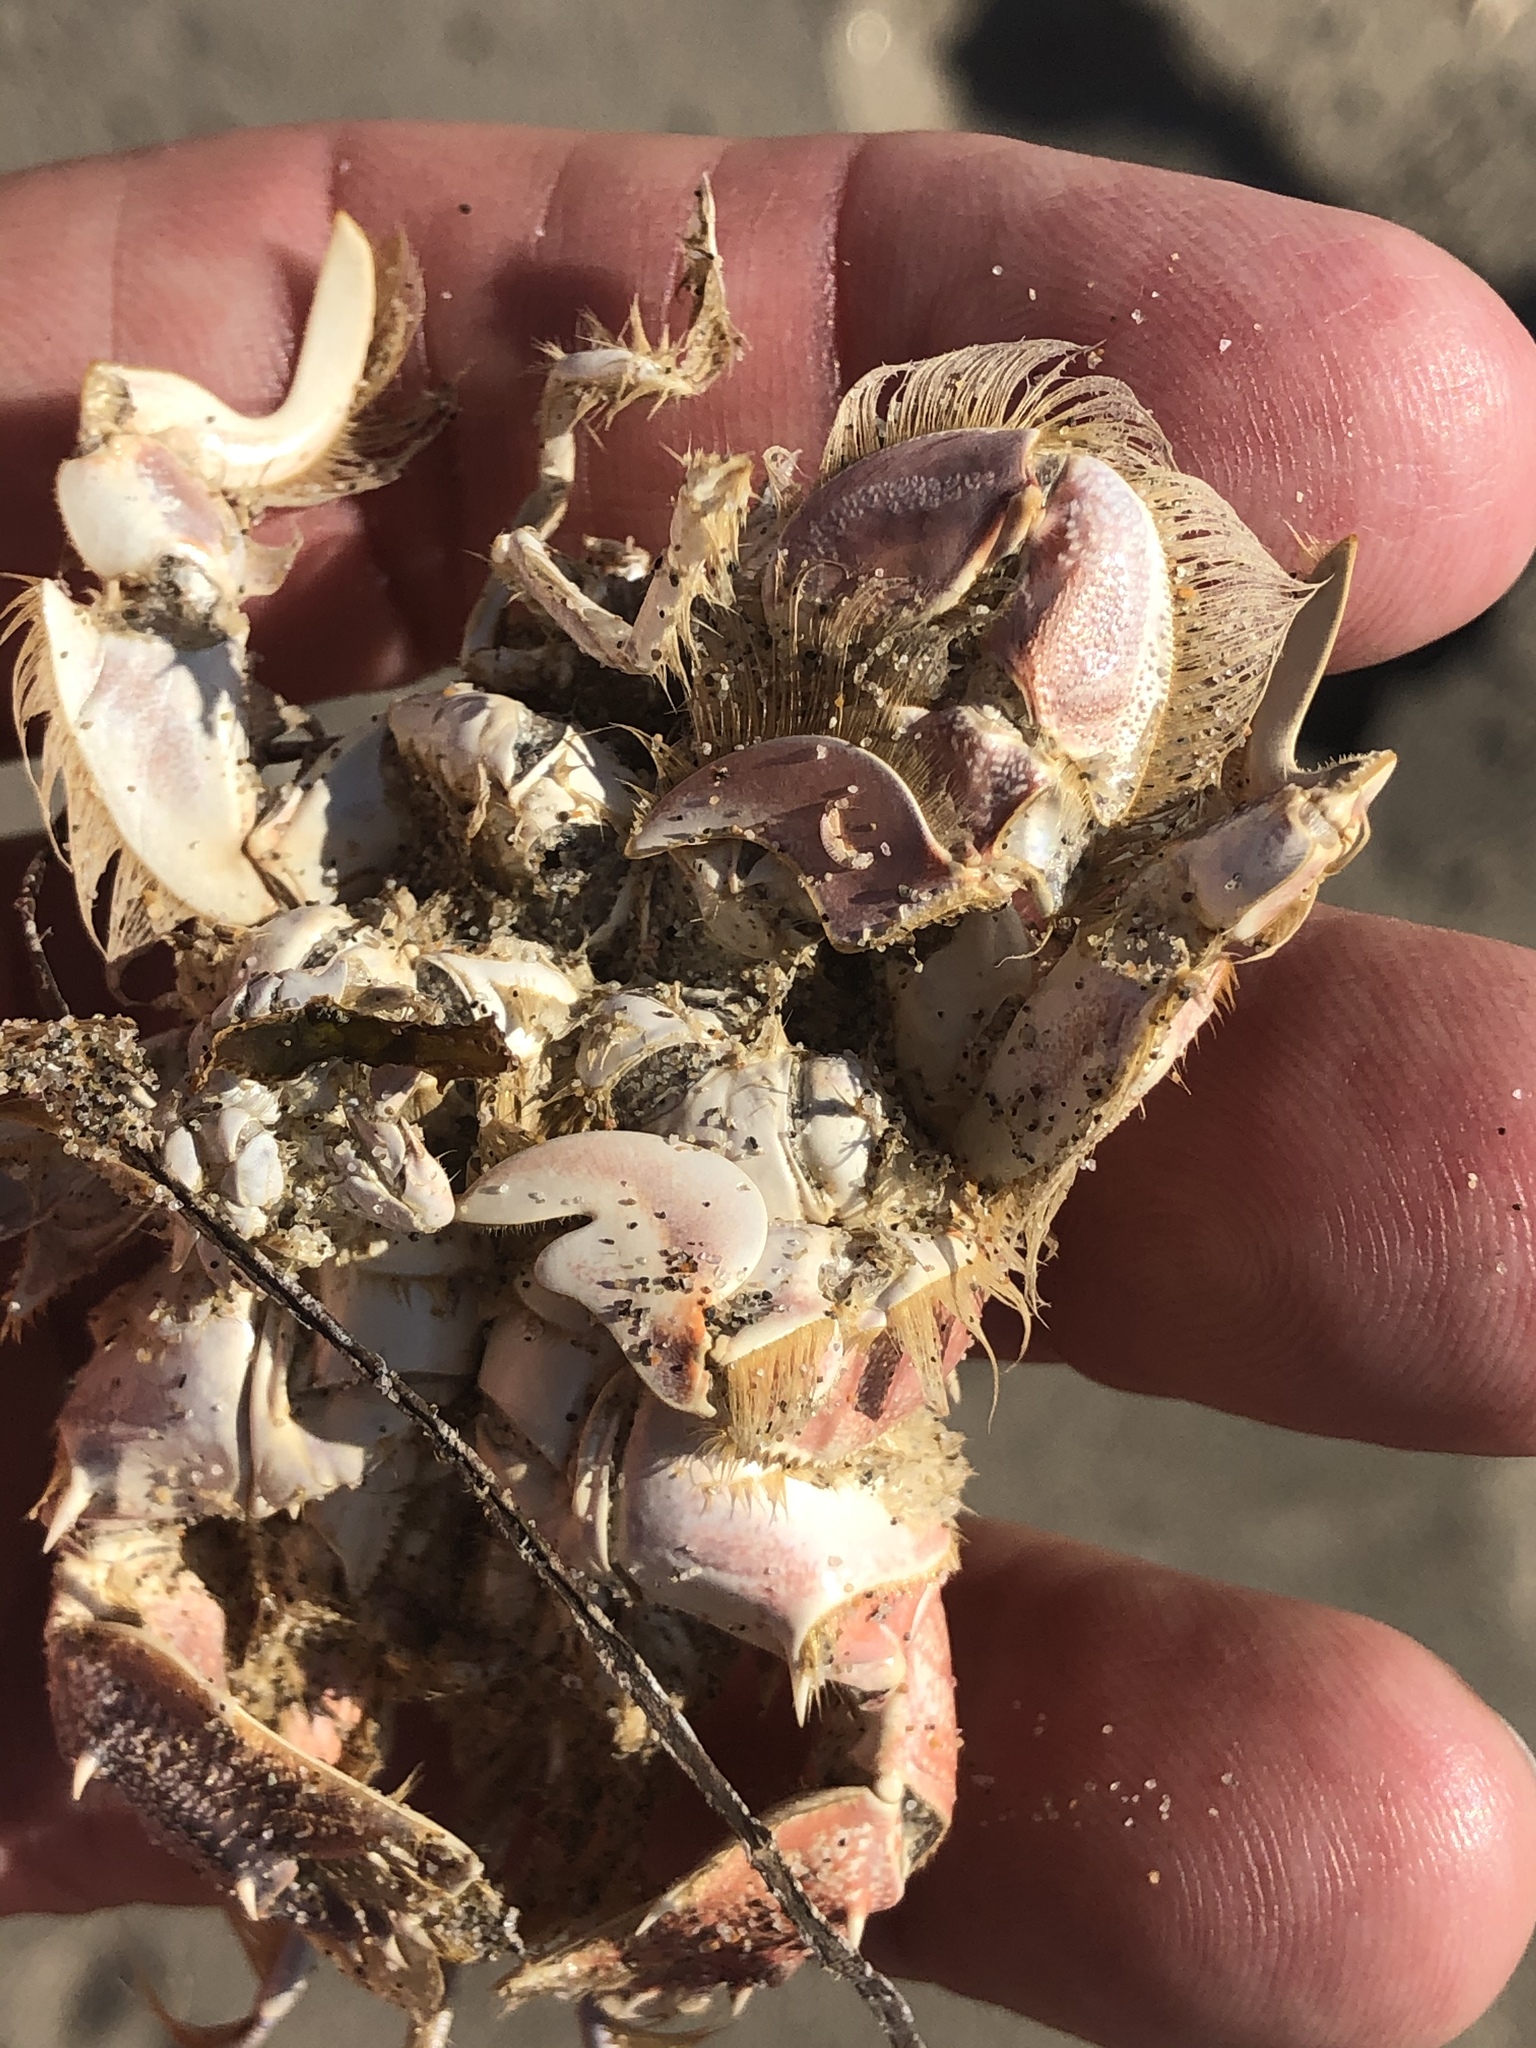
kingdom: Animalia
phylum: Arthropoda
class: Malacostraca
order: Decapoda
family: Blepharipodidae
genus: Blepharipoda
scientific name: Blepharipoda occidentalis
